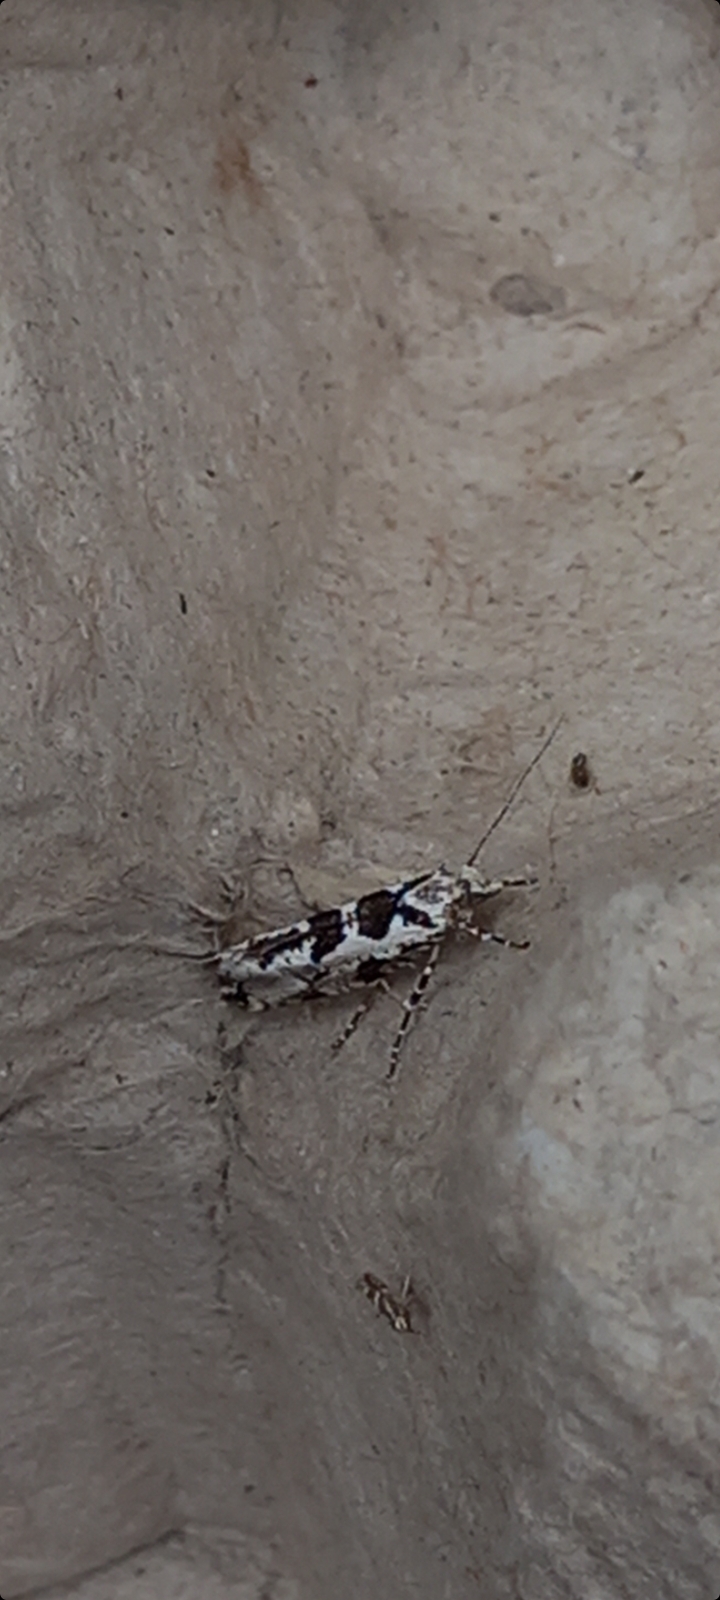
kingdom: Animalia
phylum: Arthropoda
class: Insecta
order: Lepidoptera
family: Plutellidae
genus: Ypsolophus
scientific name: Ypsolophus sequella
